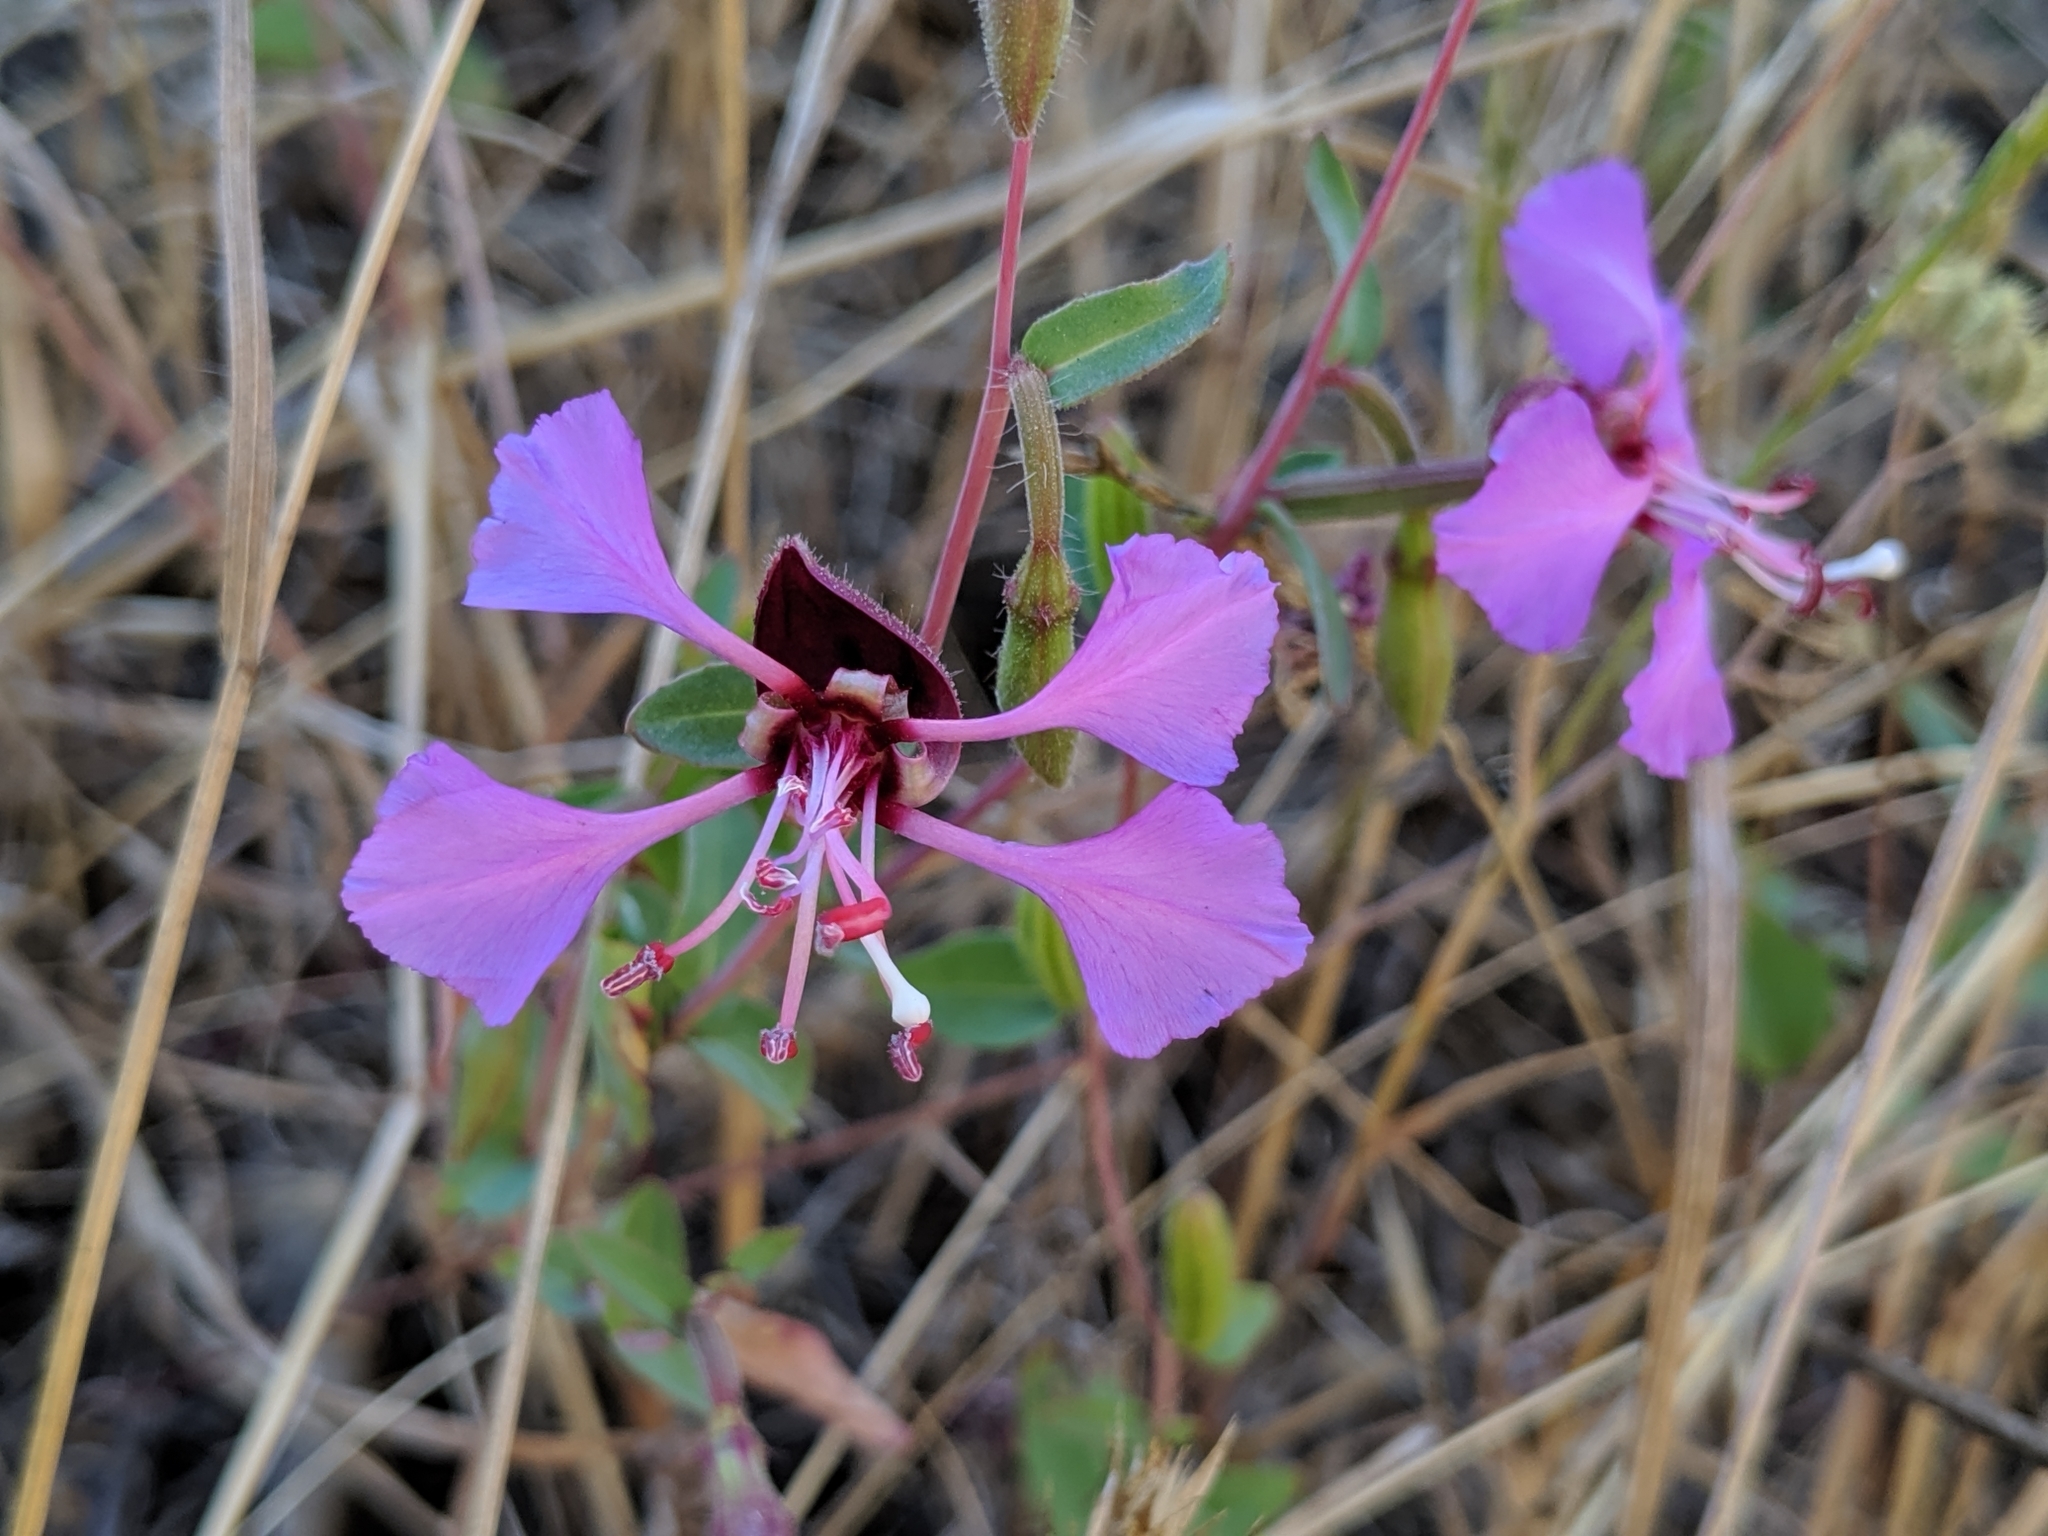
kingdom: Plantae
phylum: Tracheophyta
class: Magnoliopsida
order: Myrtales
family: Onagraceae
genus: Clarkia
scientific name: Clarkia unguiculata
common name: Clarkia
